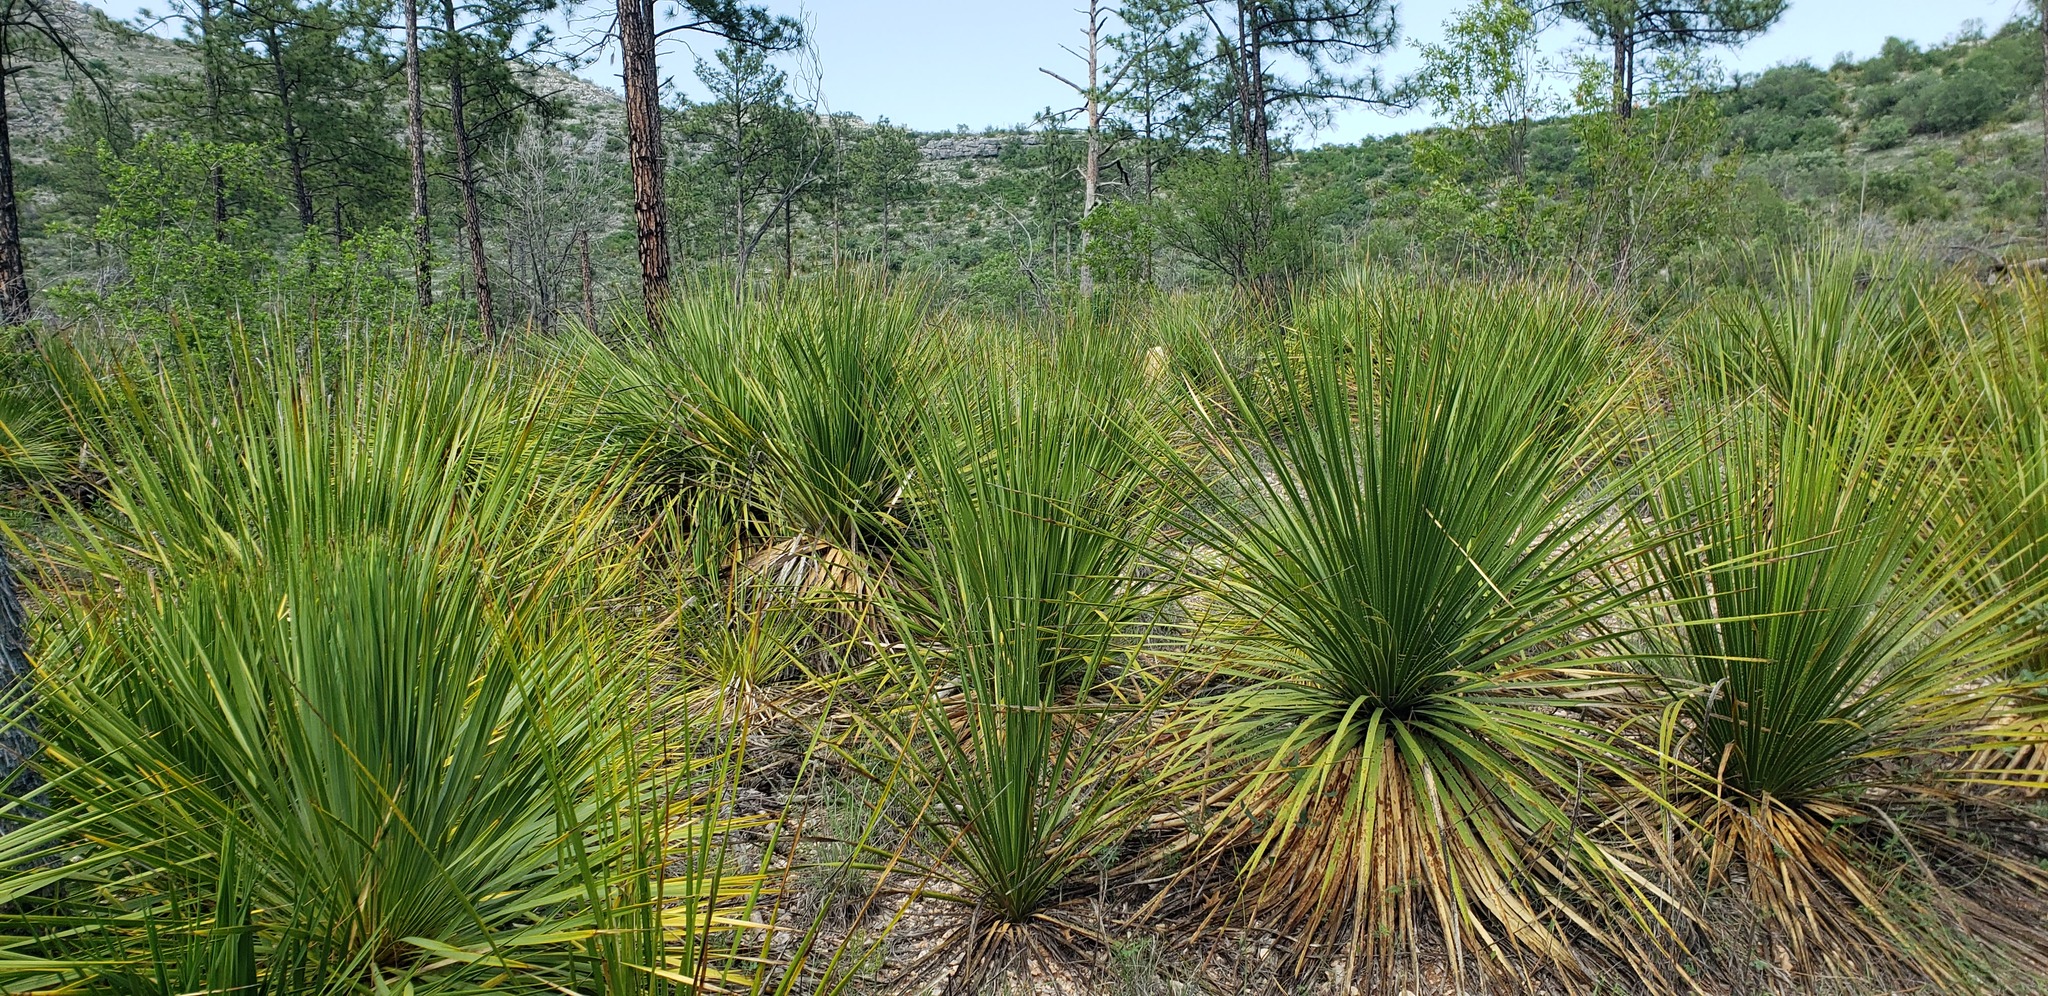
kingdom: Plantae
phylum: Tracheophyta
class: Liliopsida
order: Asparagales
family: Asparagaceae
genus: Dasylirion
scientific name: Dasylirion texanum
